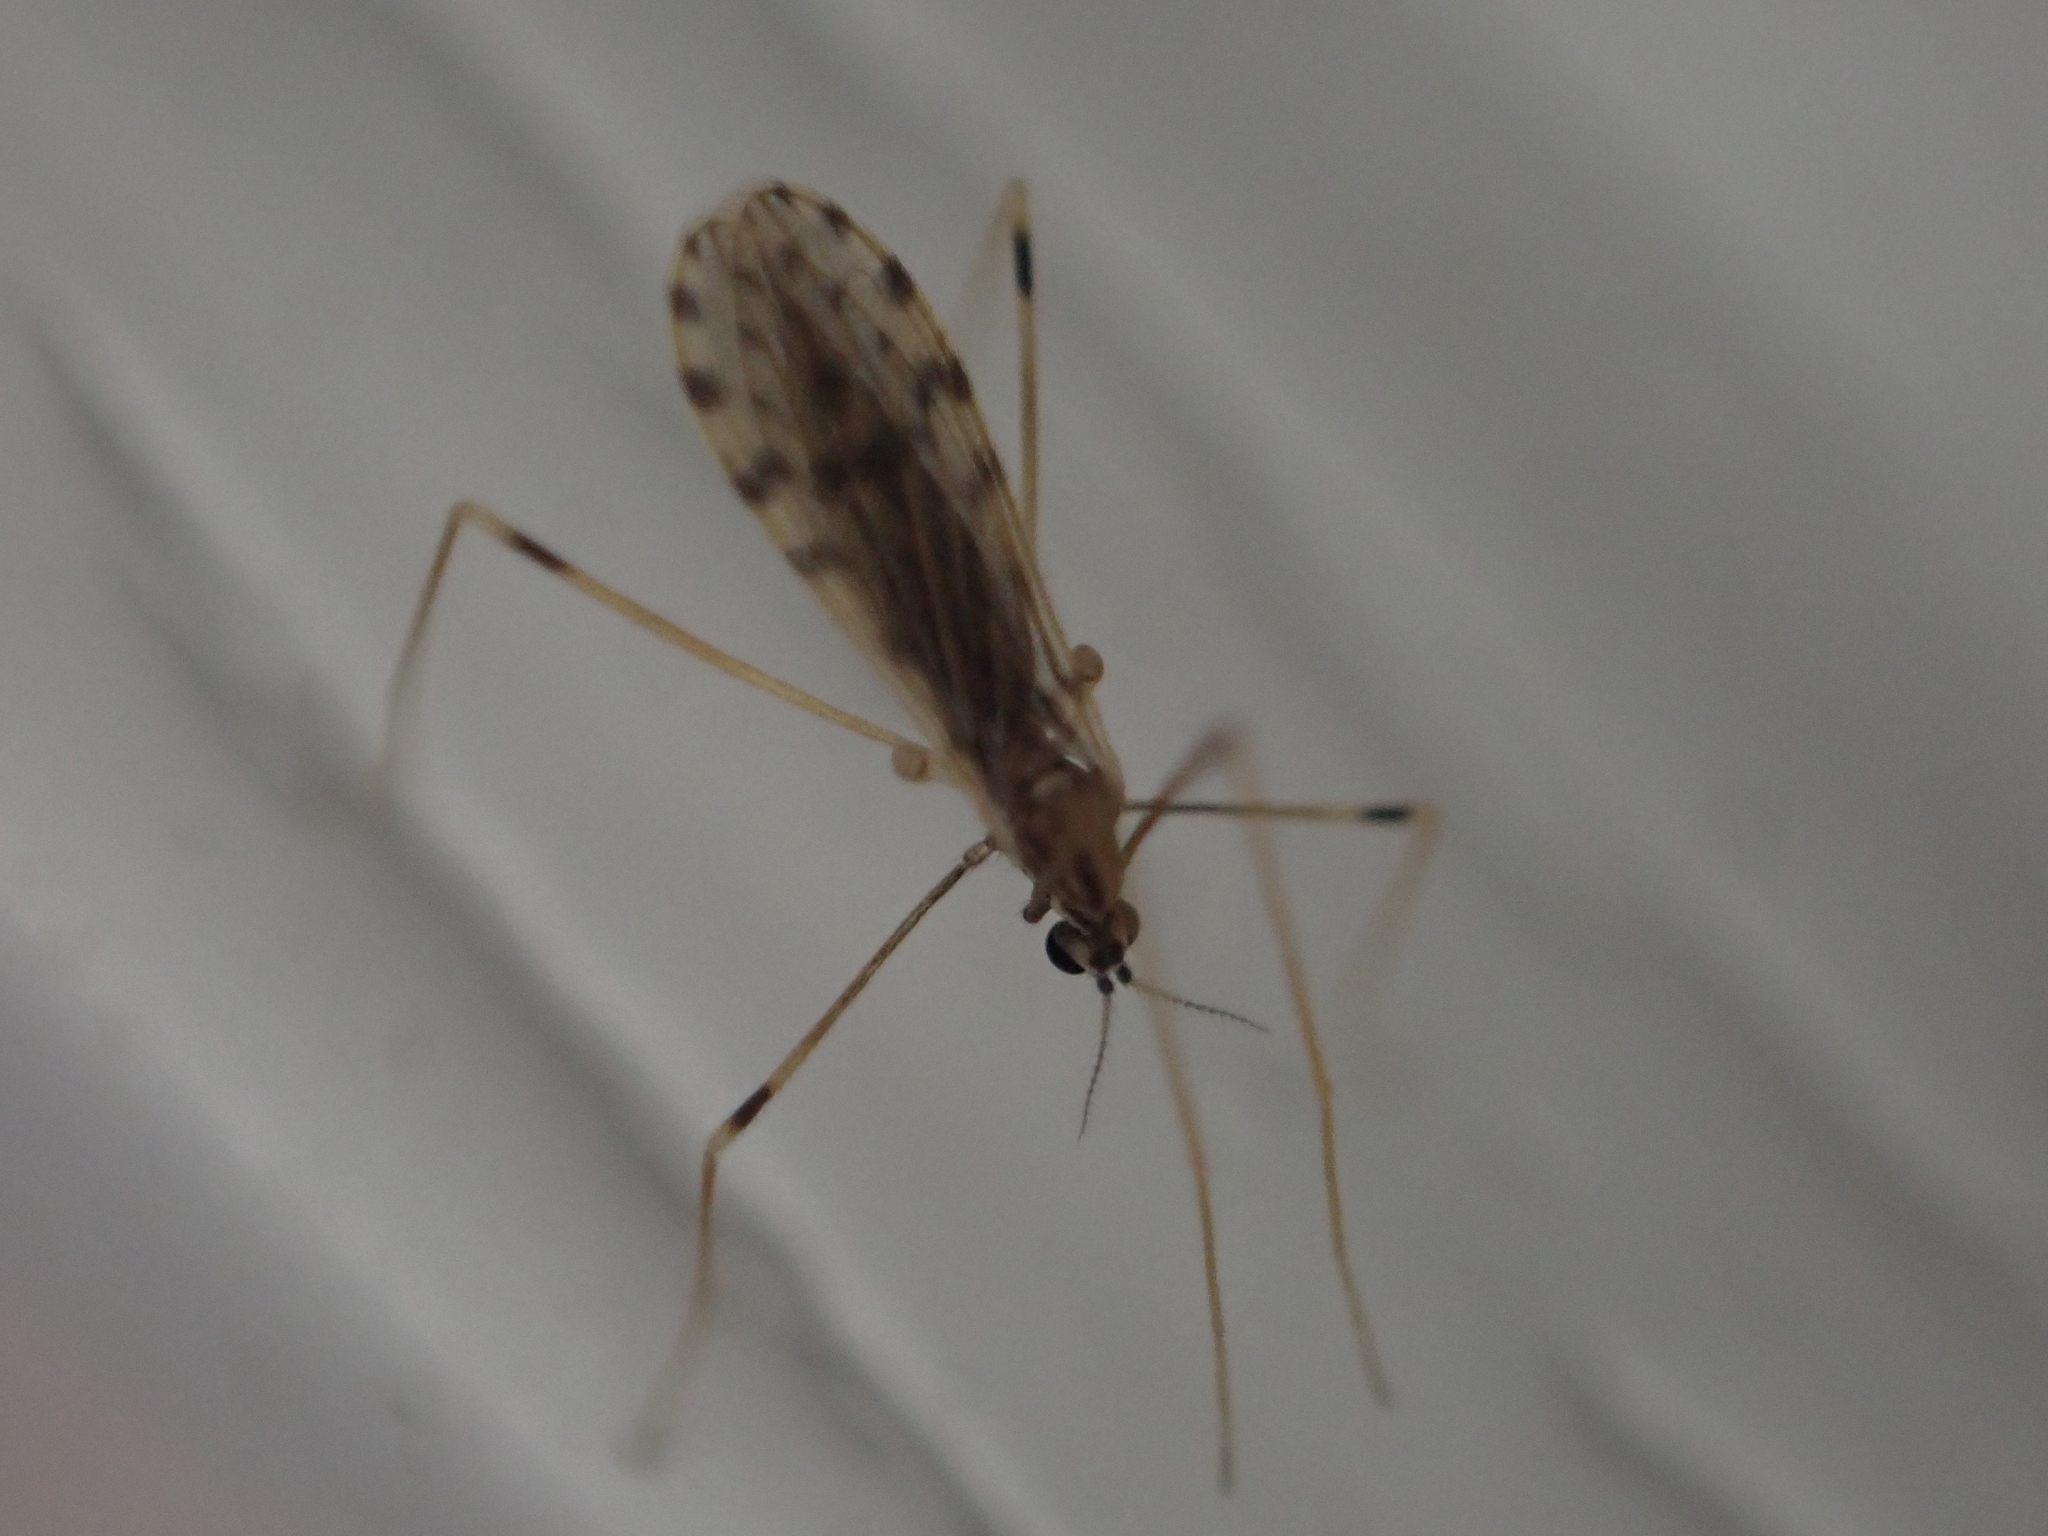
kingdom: Animalia
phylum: Arthropoda
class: Insecta
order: Diptera
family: Limoniidae
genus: Erioptera
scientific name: Erioptera parva
